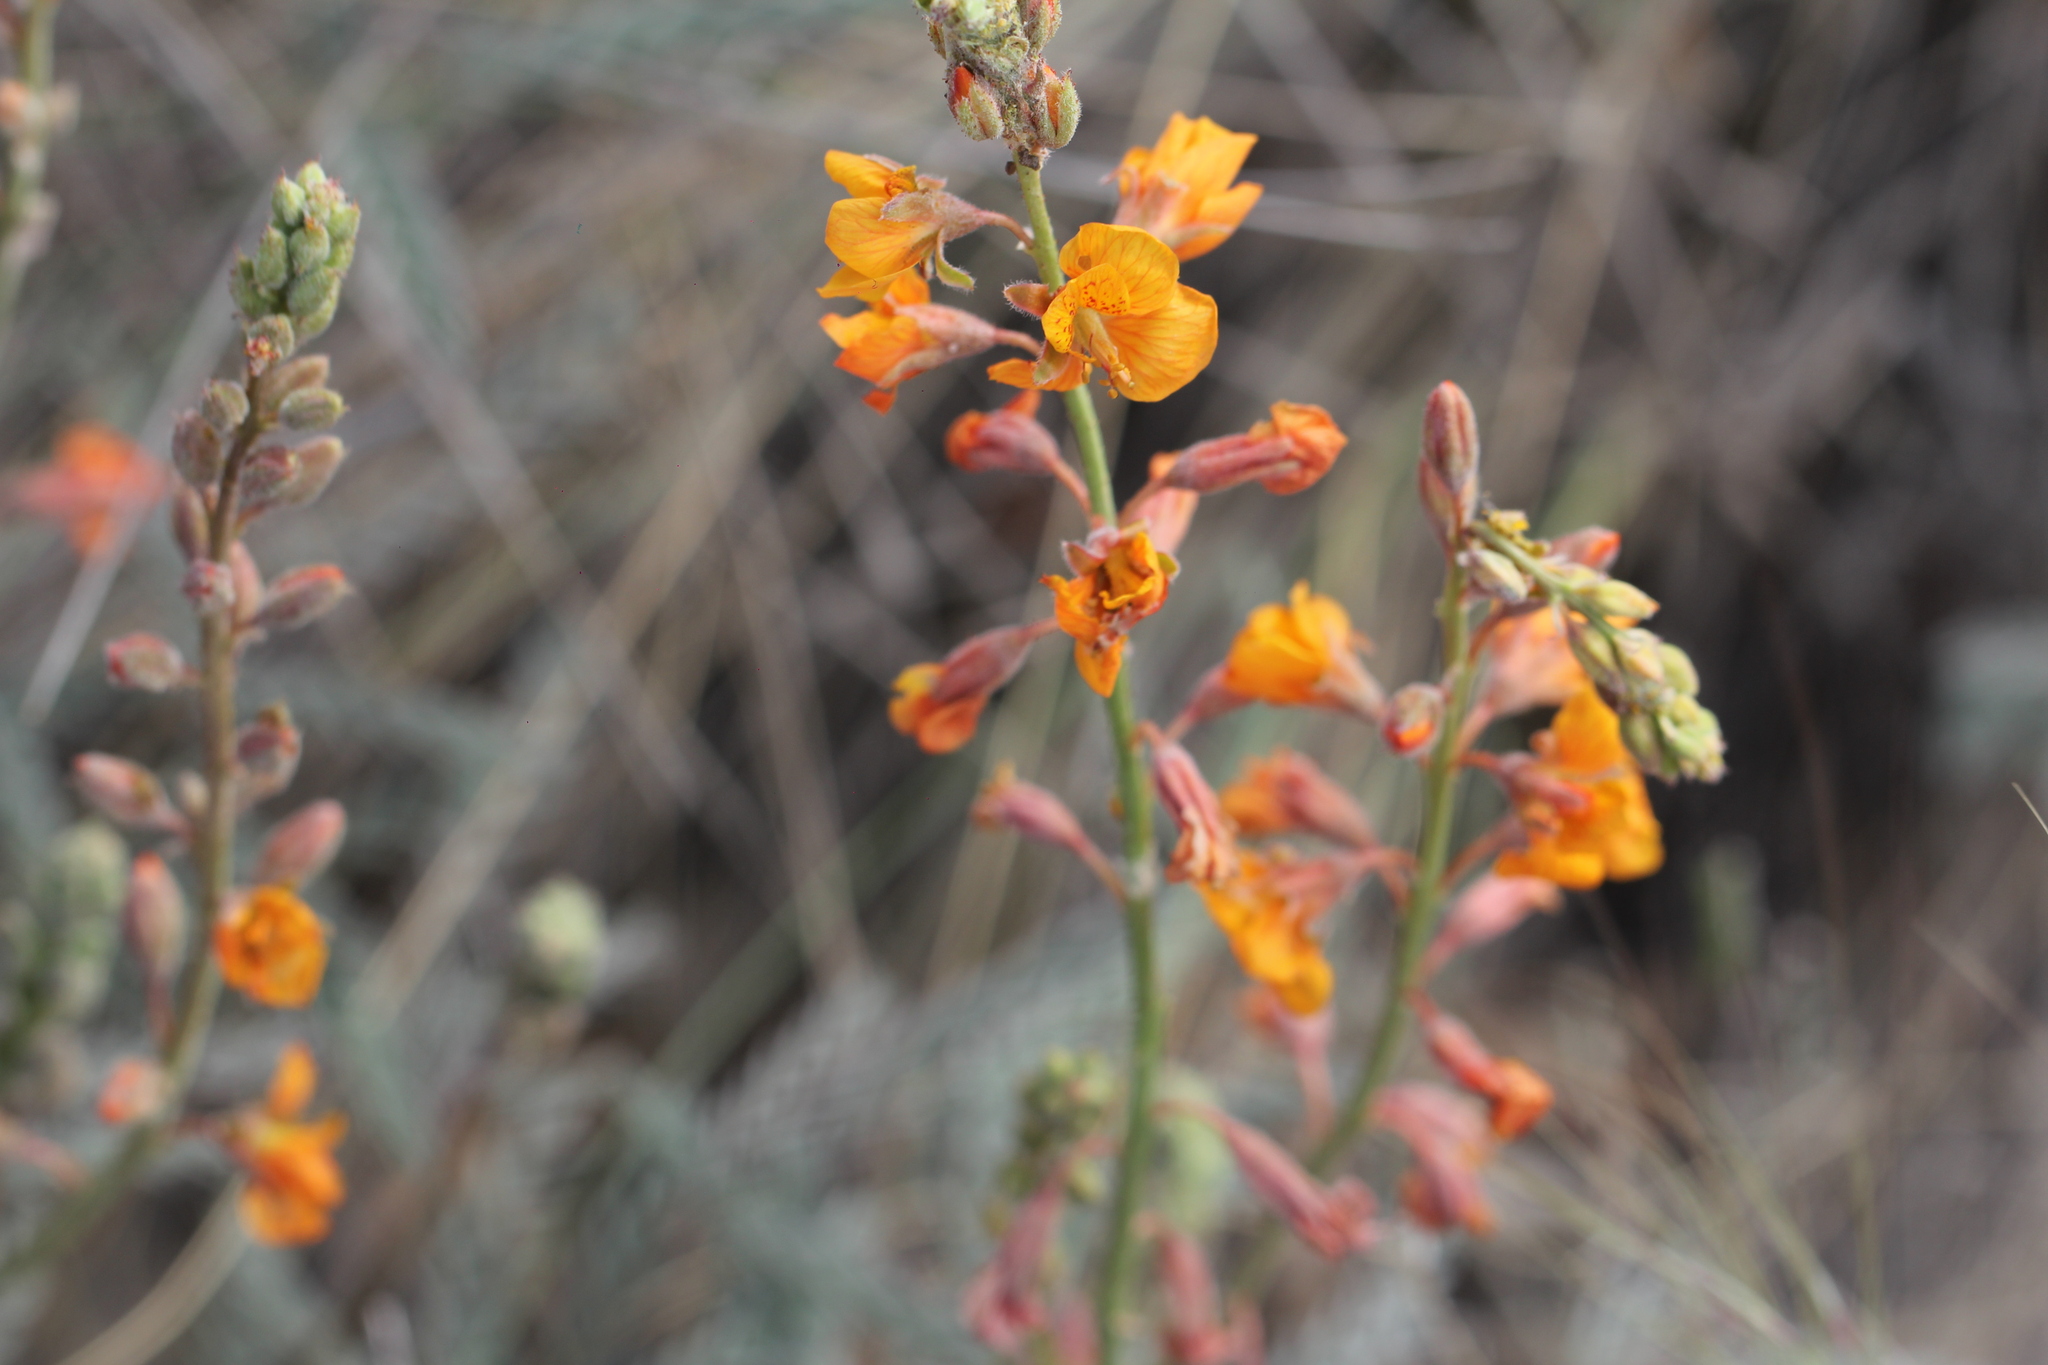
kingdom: Plantae
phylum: Tracheophyta
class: Magnoliopsida
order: Fabales
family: Fabaceae
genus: Hoffmannseggia
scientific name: Hoffmannseggia glauca
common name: Pignut
